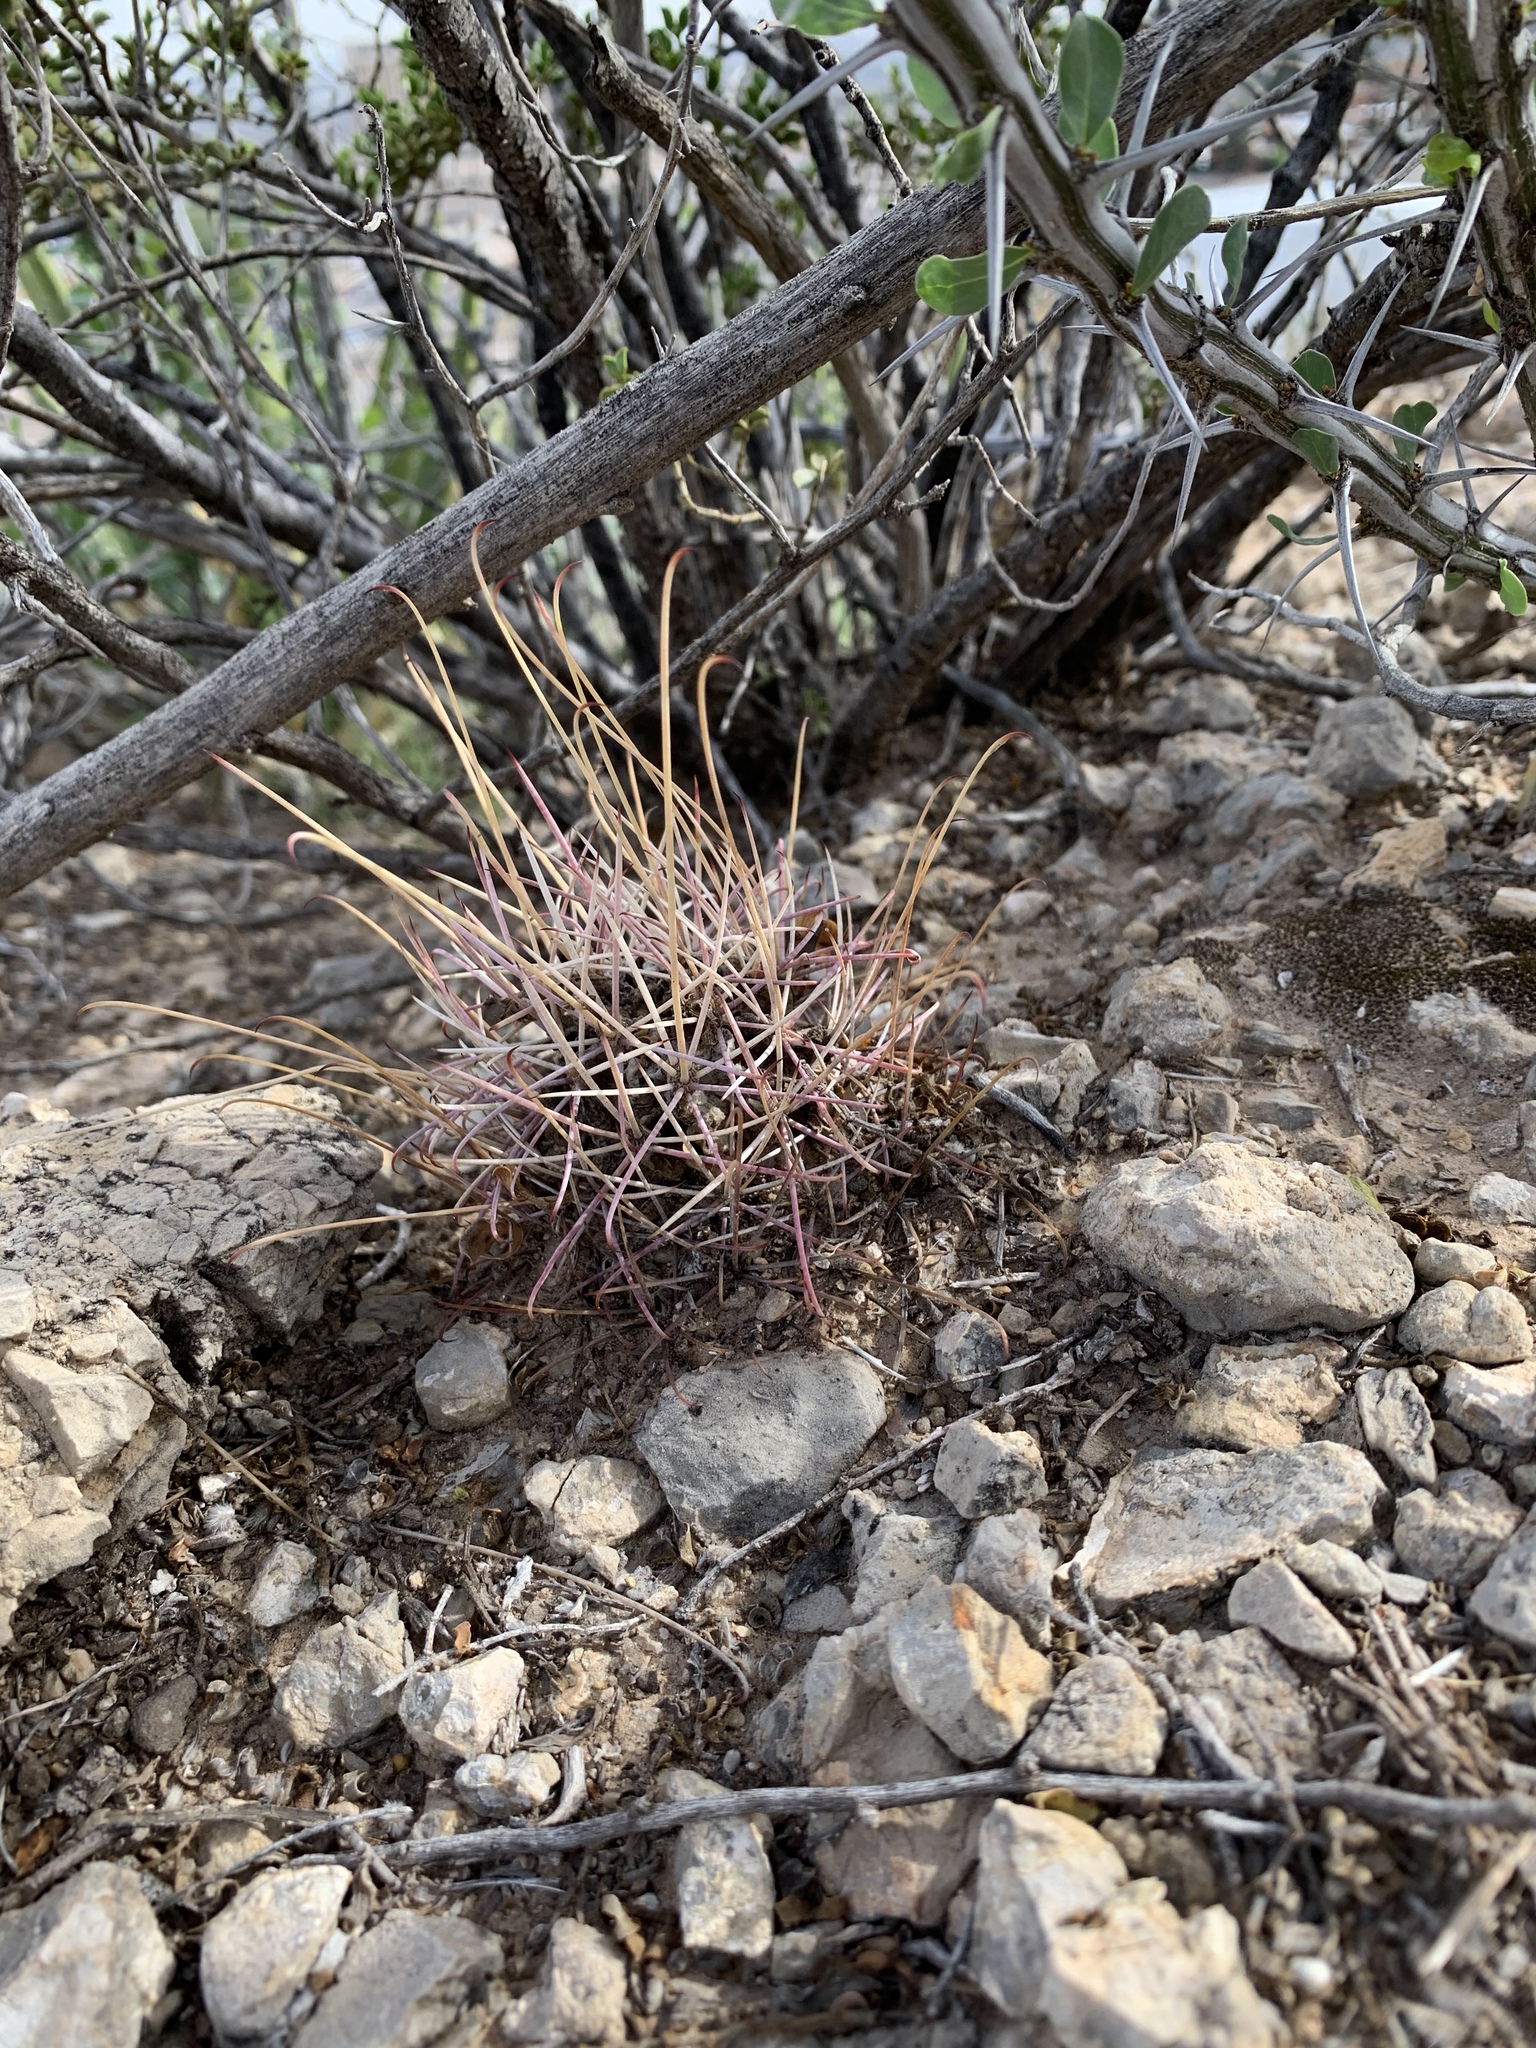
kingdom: Plantae
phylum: Tracheophyta
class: Magnoliopsida
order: Caryophyllales
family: Cactaceae
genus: Ferocactus
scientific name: Ferocactus uncinatus
